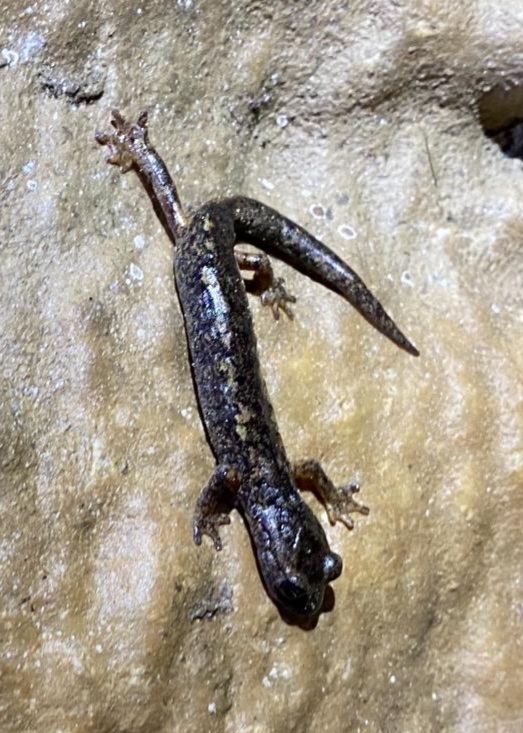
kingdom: Animalia
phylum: Chordata
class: Amphibia
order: Caudata
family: Plethodontidae
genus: Speleomantes
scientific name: Speleomantes ambrosii
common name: Ambrosi's cave salamander
